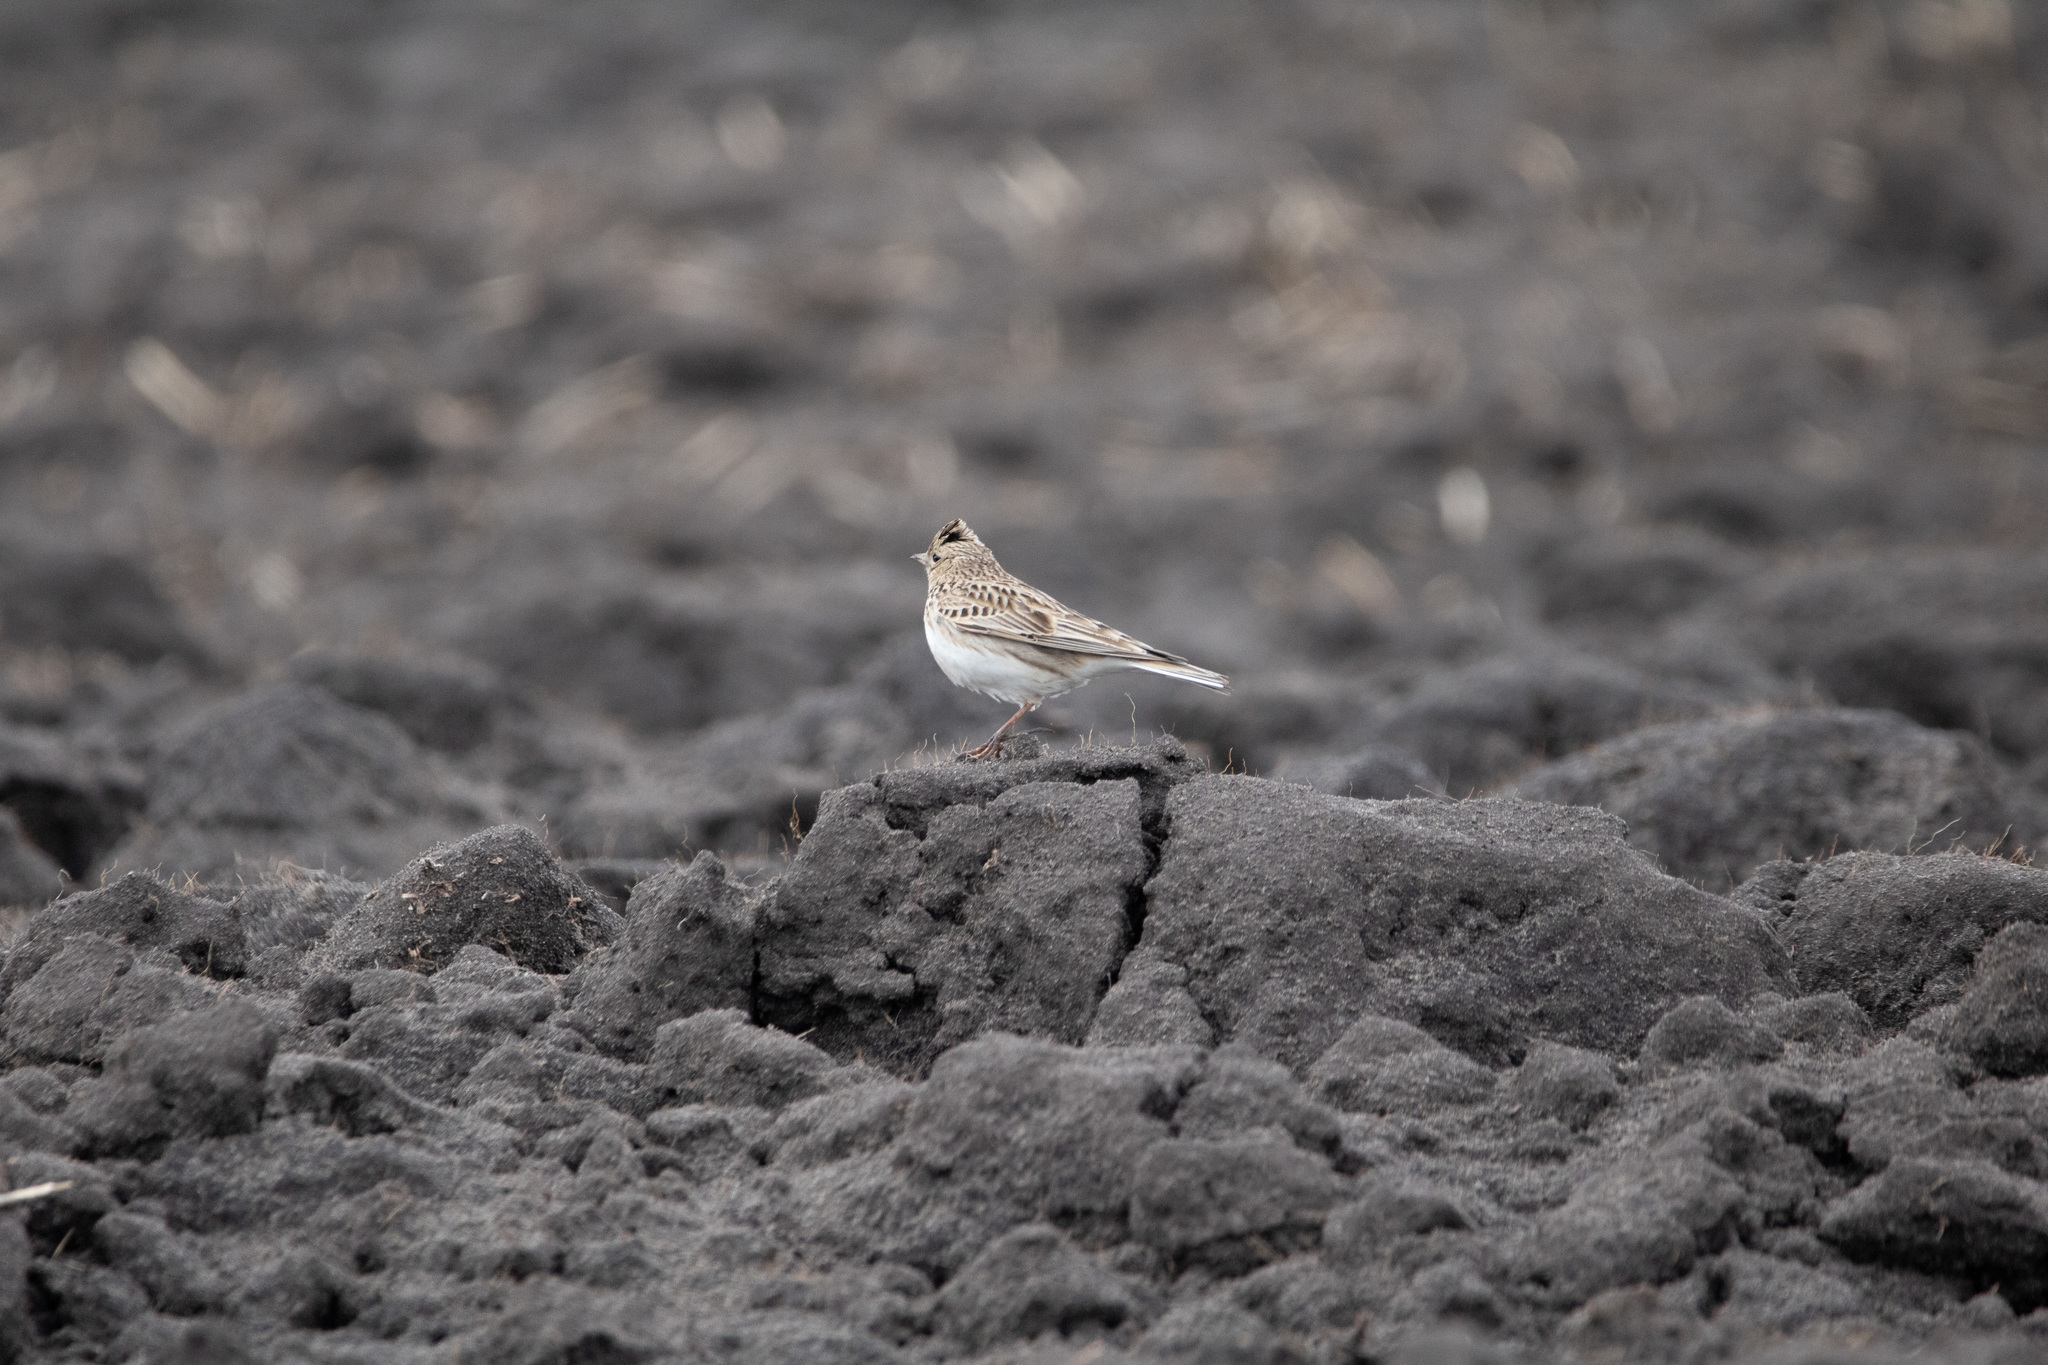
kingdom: Animalia
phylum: Chordata
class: Aves
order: Passeriformes
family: Alaudidae
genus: Alauda
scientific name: Alauda arvensis
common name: Eurasian skylark
